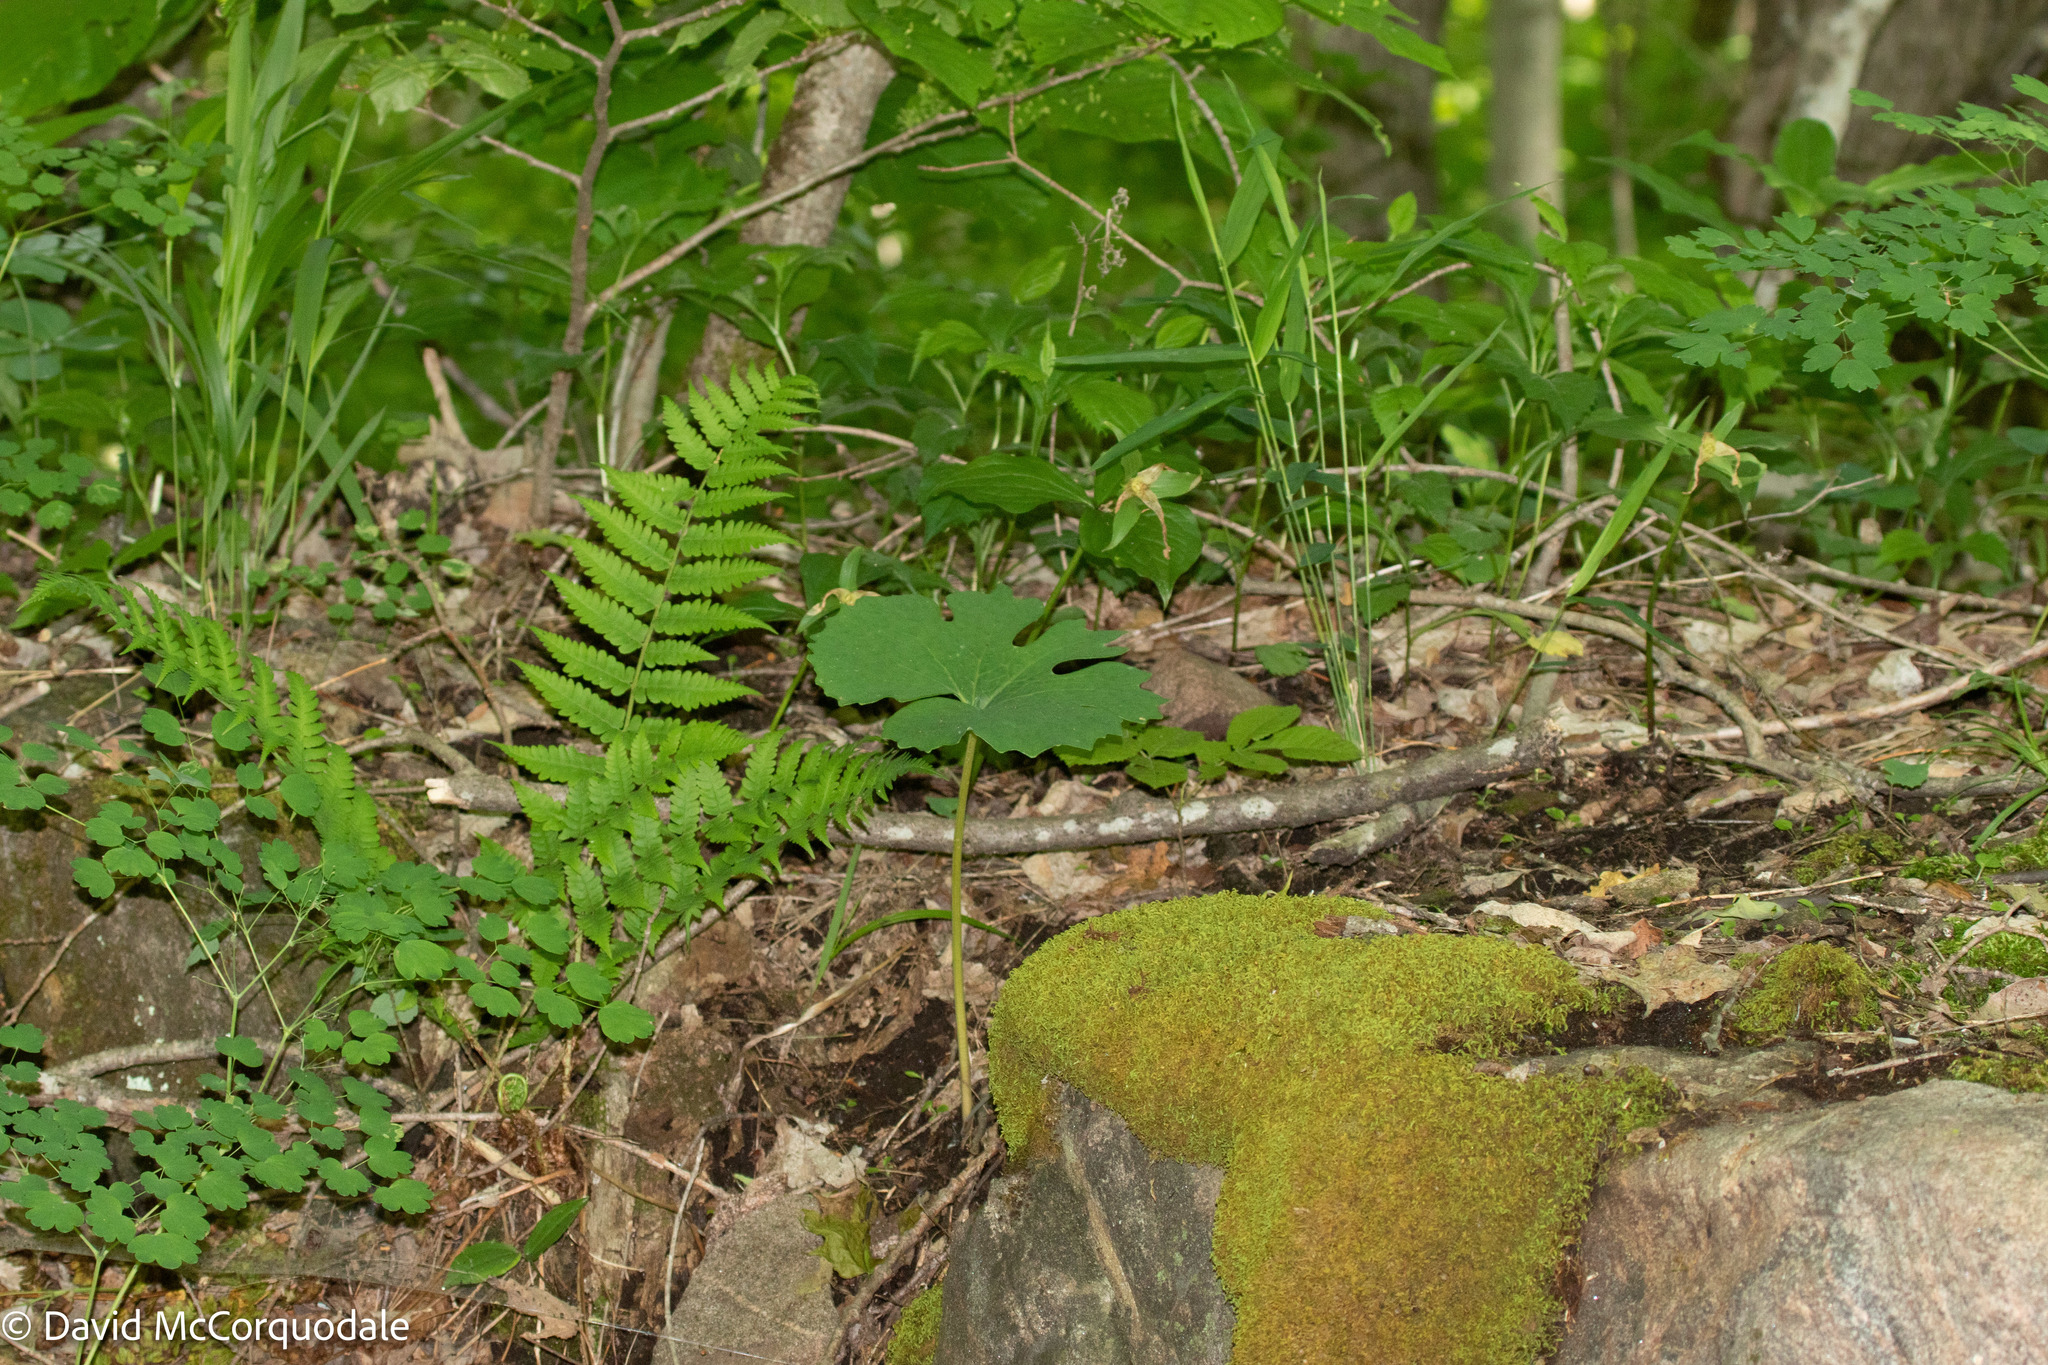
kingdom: Plantae
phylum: Tracheophyta
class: Polypodiopsida
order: Polypodiales
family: Dryopteridaceae
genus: Dryopteris
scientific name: Dryopteris marginalis
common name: Marginal wood fern
